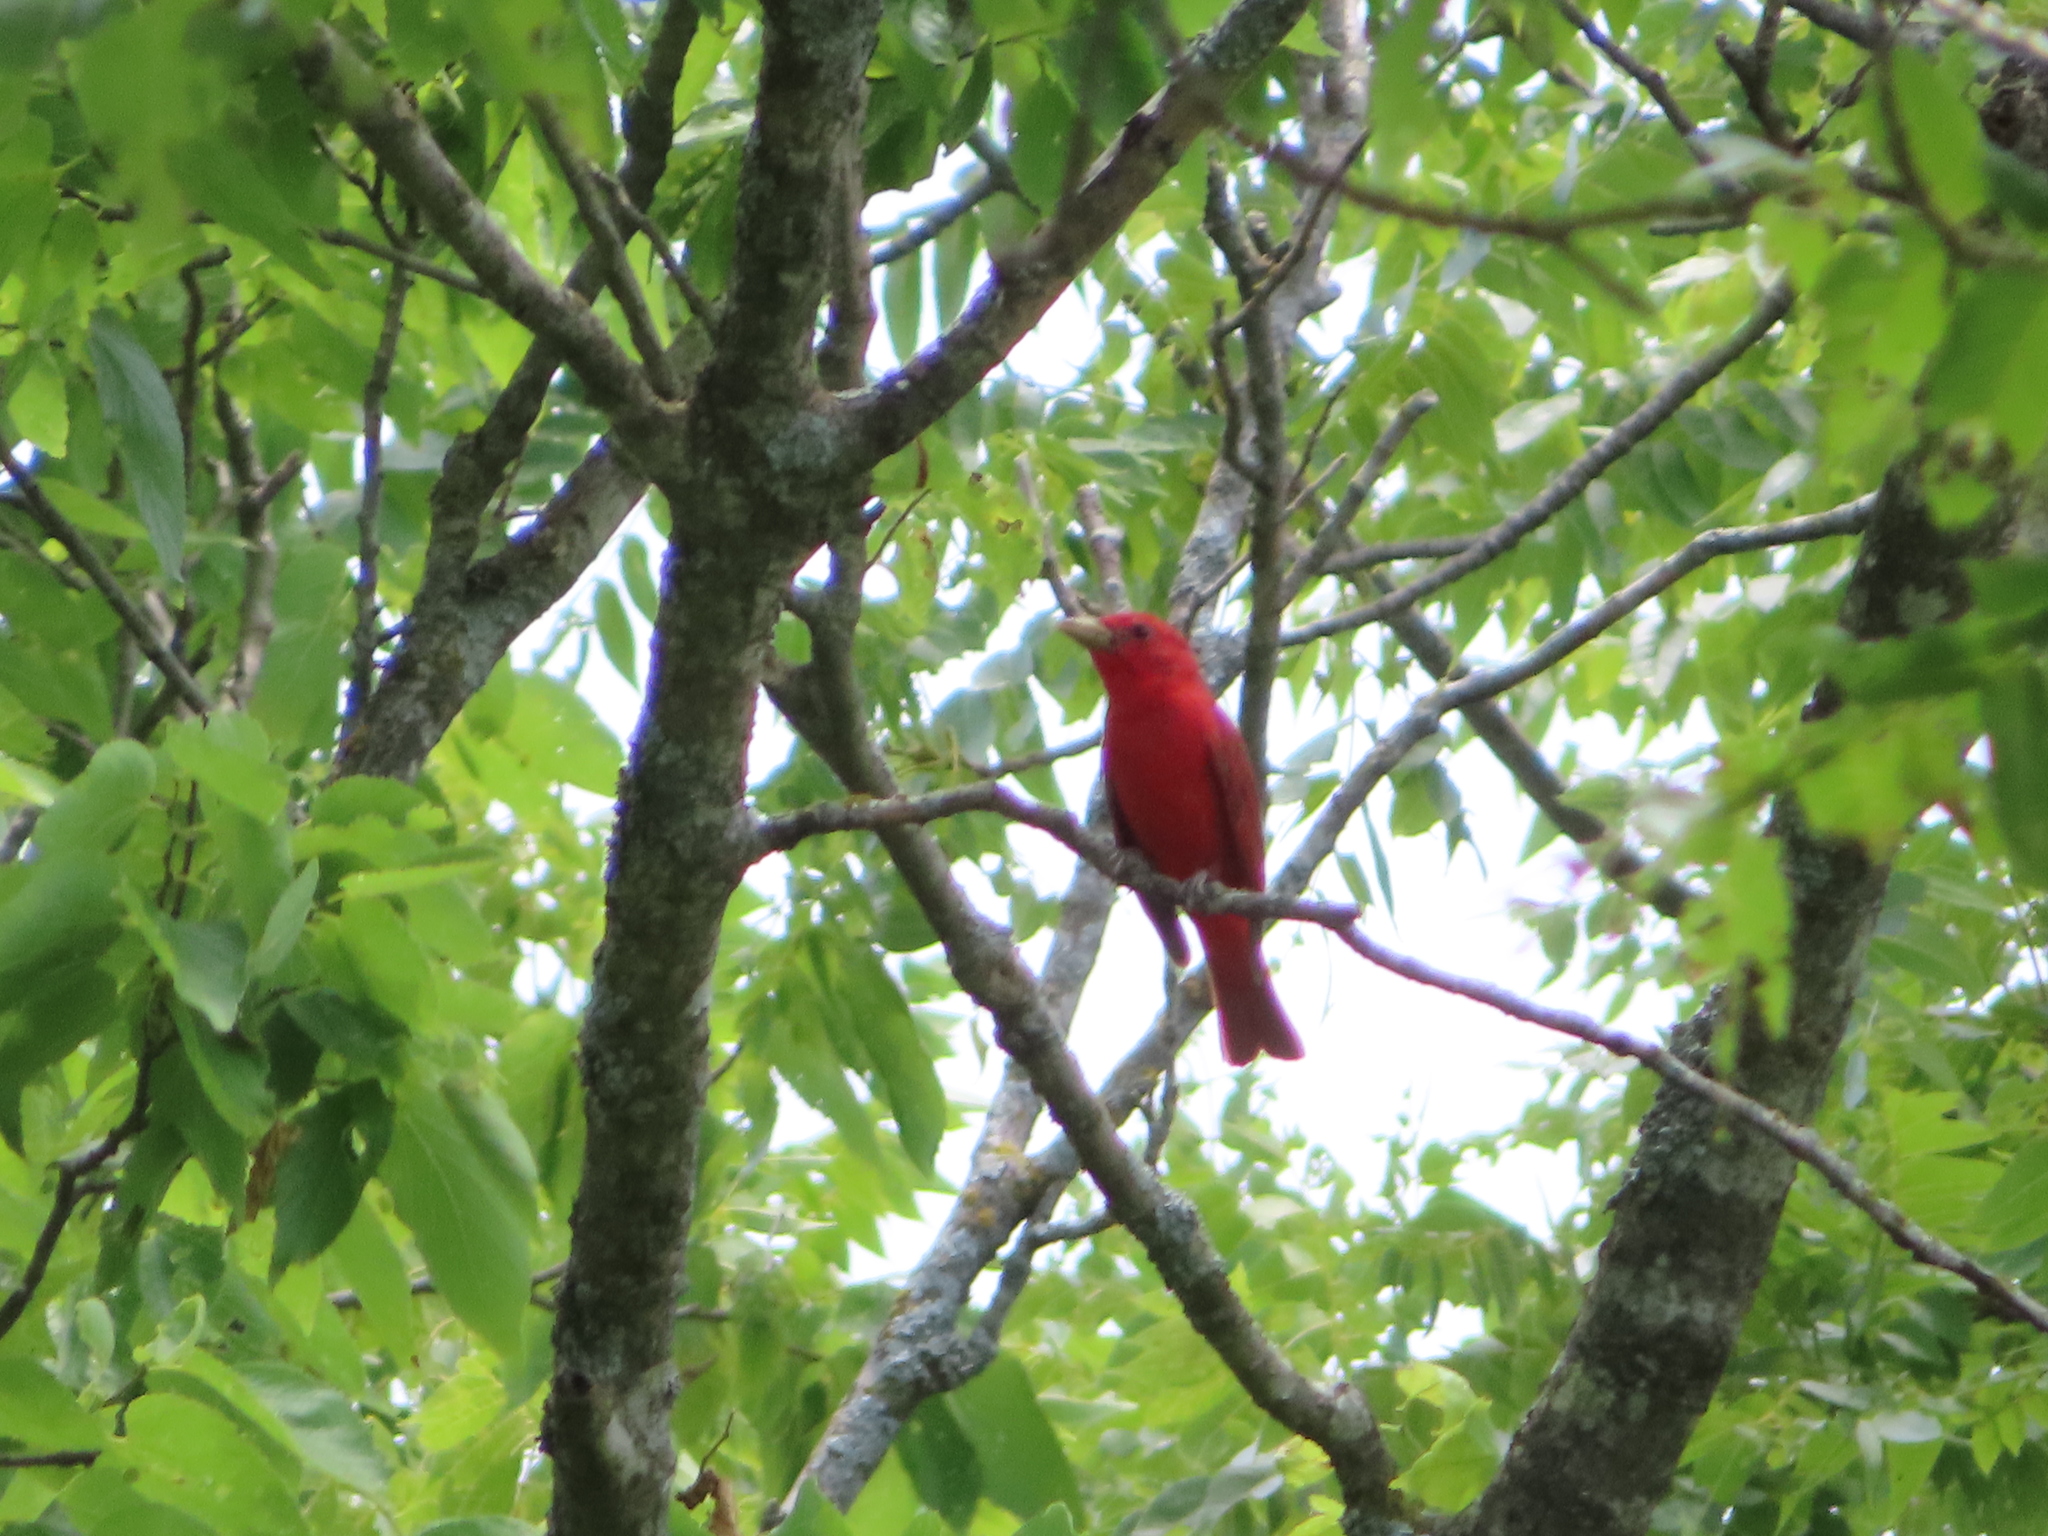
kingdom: Animalia
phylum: Chordata
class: Aves
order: Passeriformes
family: Cardinalidae
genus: Piranga
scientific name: Piranga rubra
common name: Summer tanager
